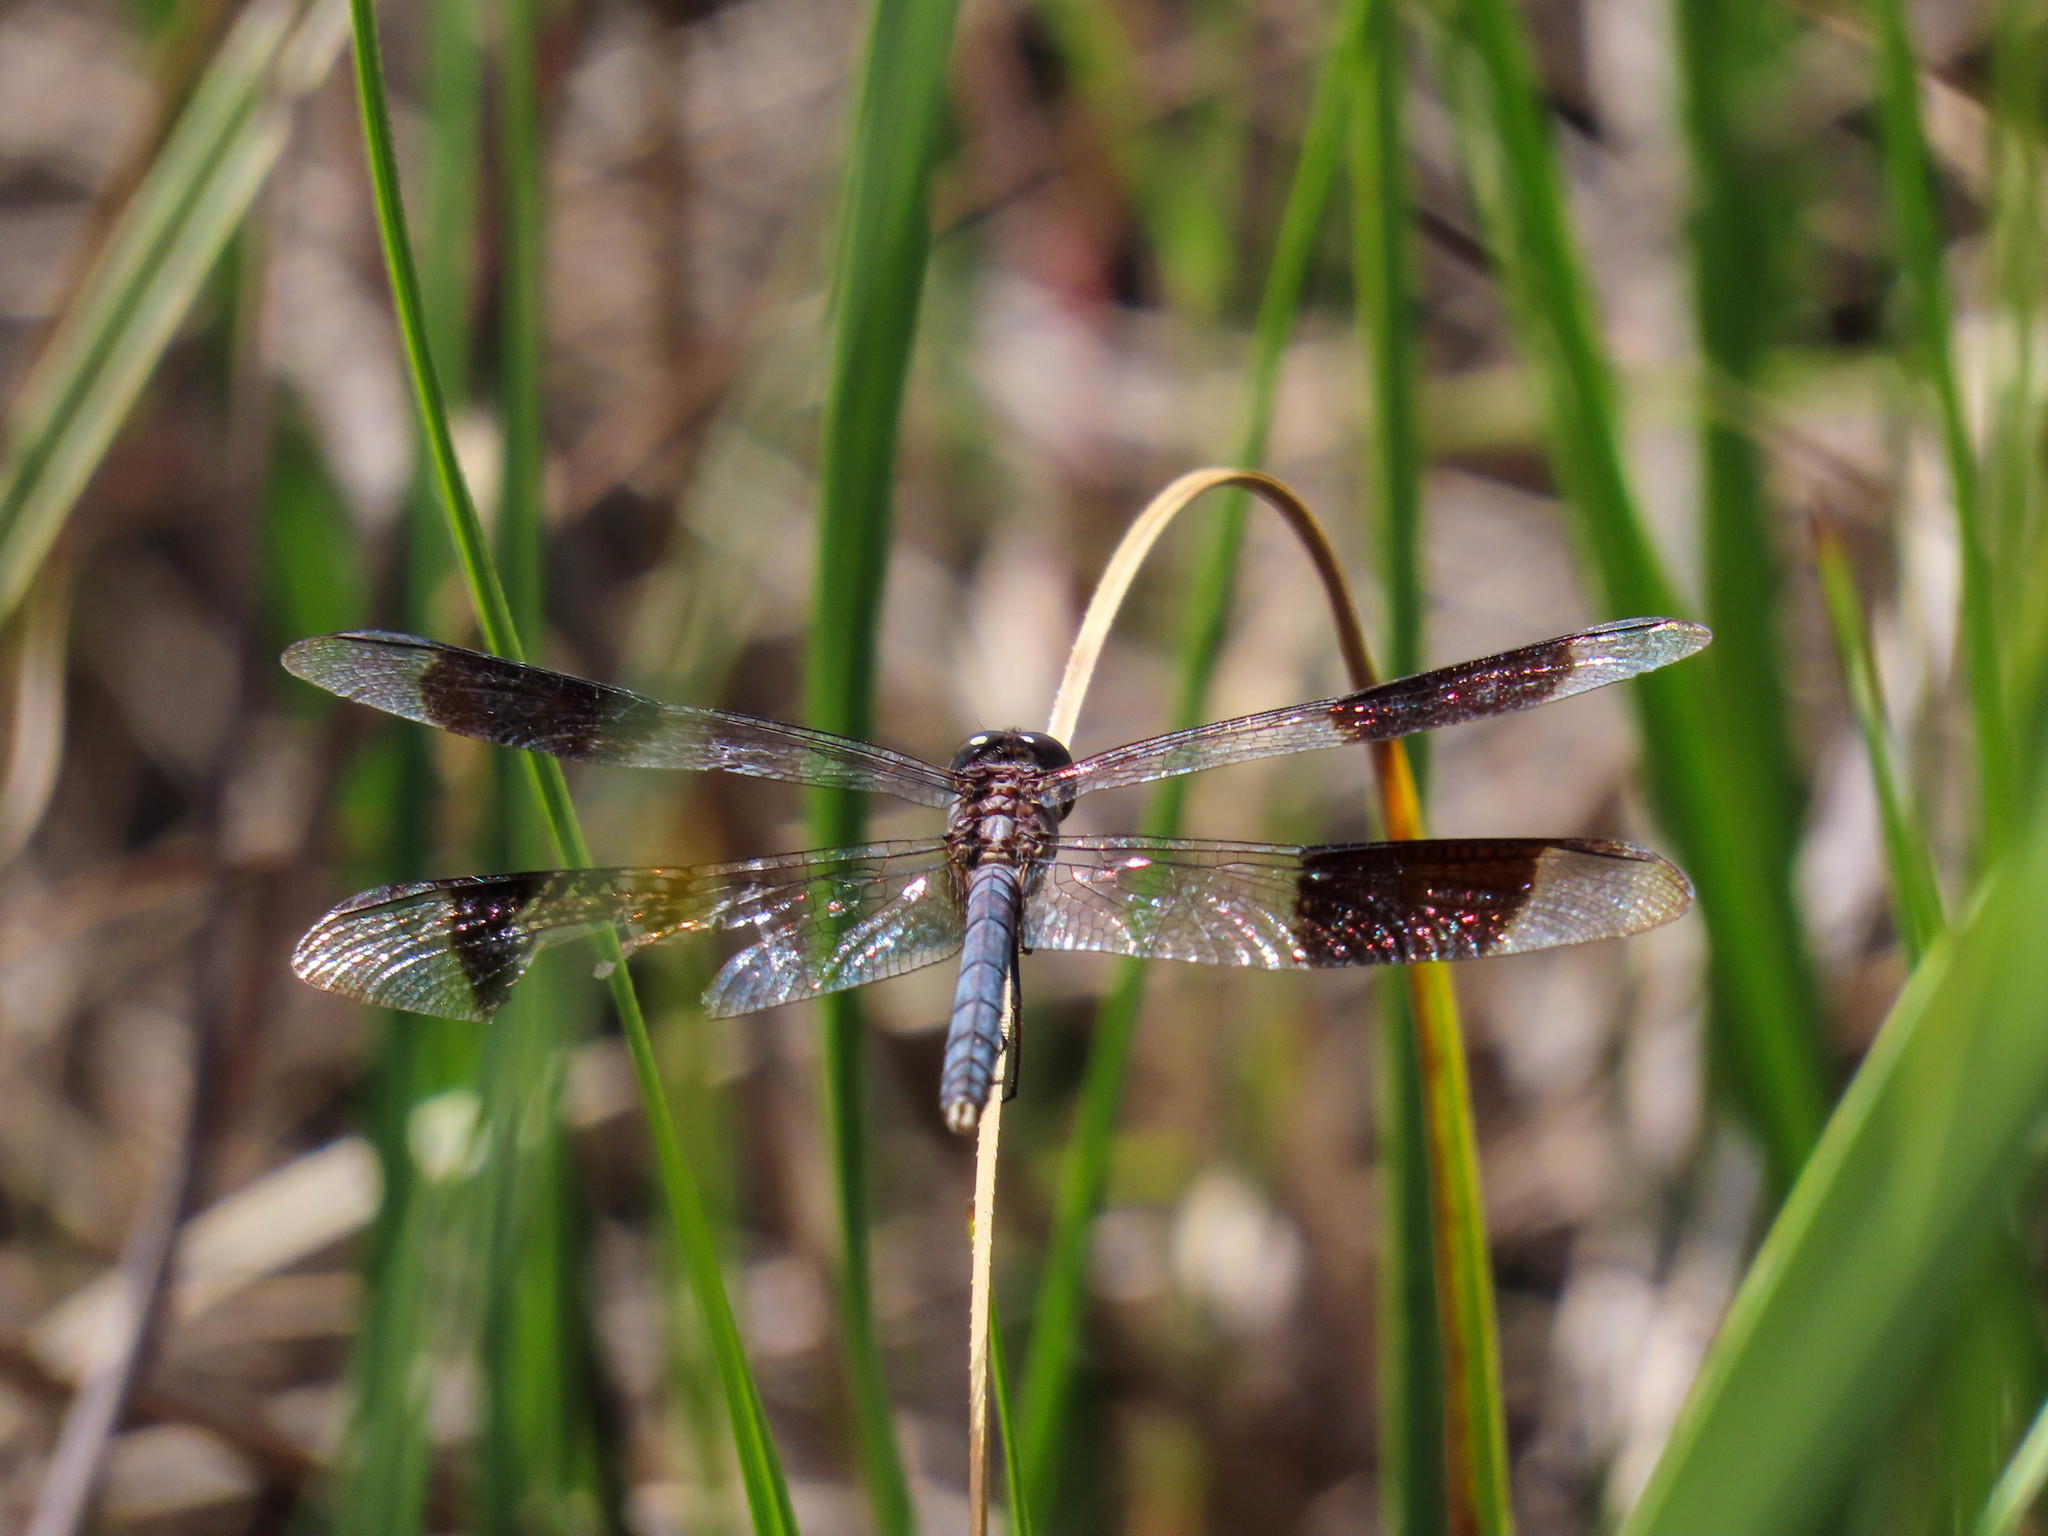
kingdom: Animalia
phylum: Arthropoda
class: Insecta
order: Odonata
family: Libellulidae
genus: Erythrodiplax
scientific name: Erythrodiplax umbrata
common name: Band-winged dragonlet
